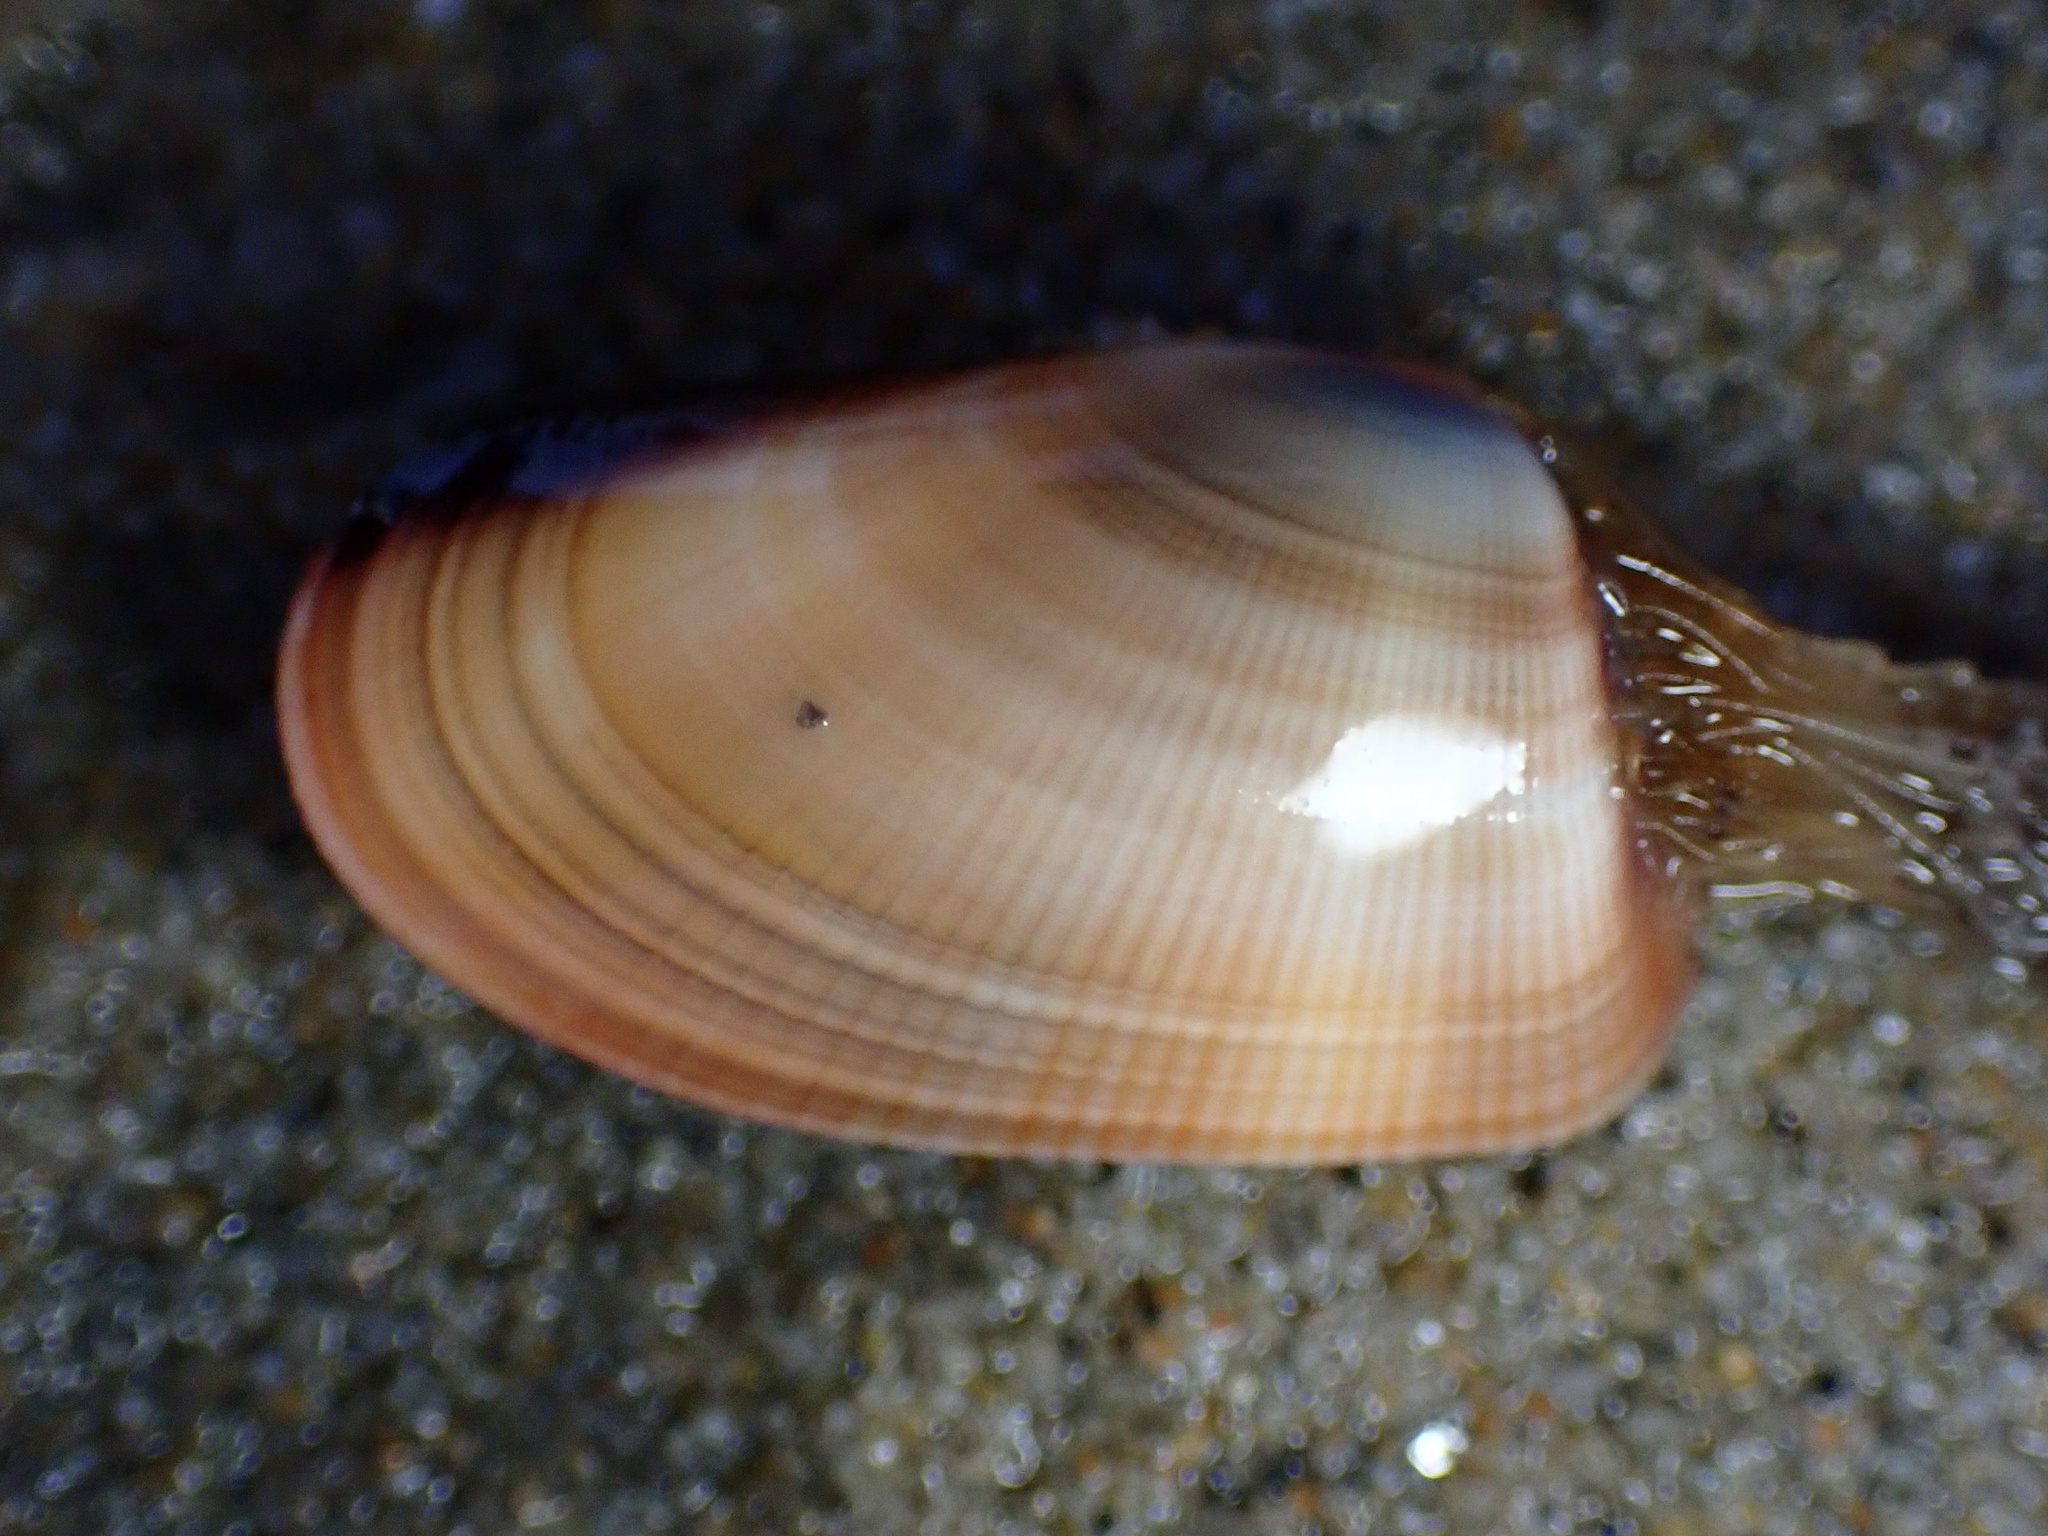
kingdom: Animalia
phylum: Mollusca
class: Bivalvia
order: Cardiida
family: Donacidae
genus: Donax
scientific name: Donax gouldii
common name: Gould beanclam
